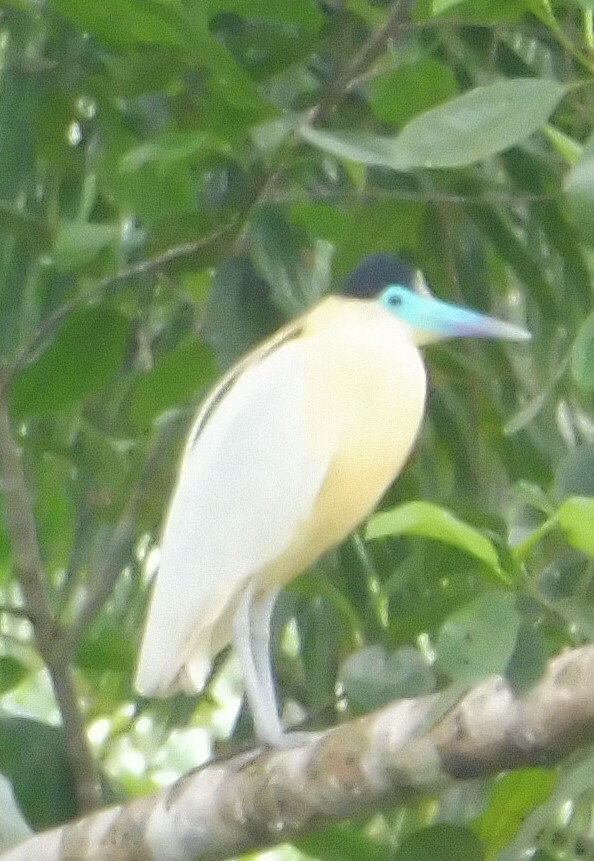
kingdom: Animalia
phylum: Chordata
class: Aves
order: Pelecaniformes
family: Ardeidae
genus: Pilherodius
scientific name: Pilherodius pileatus
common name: Capped heron
